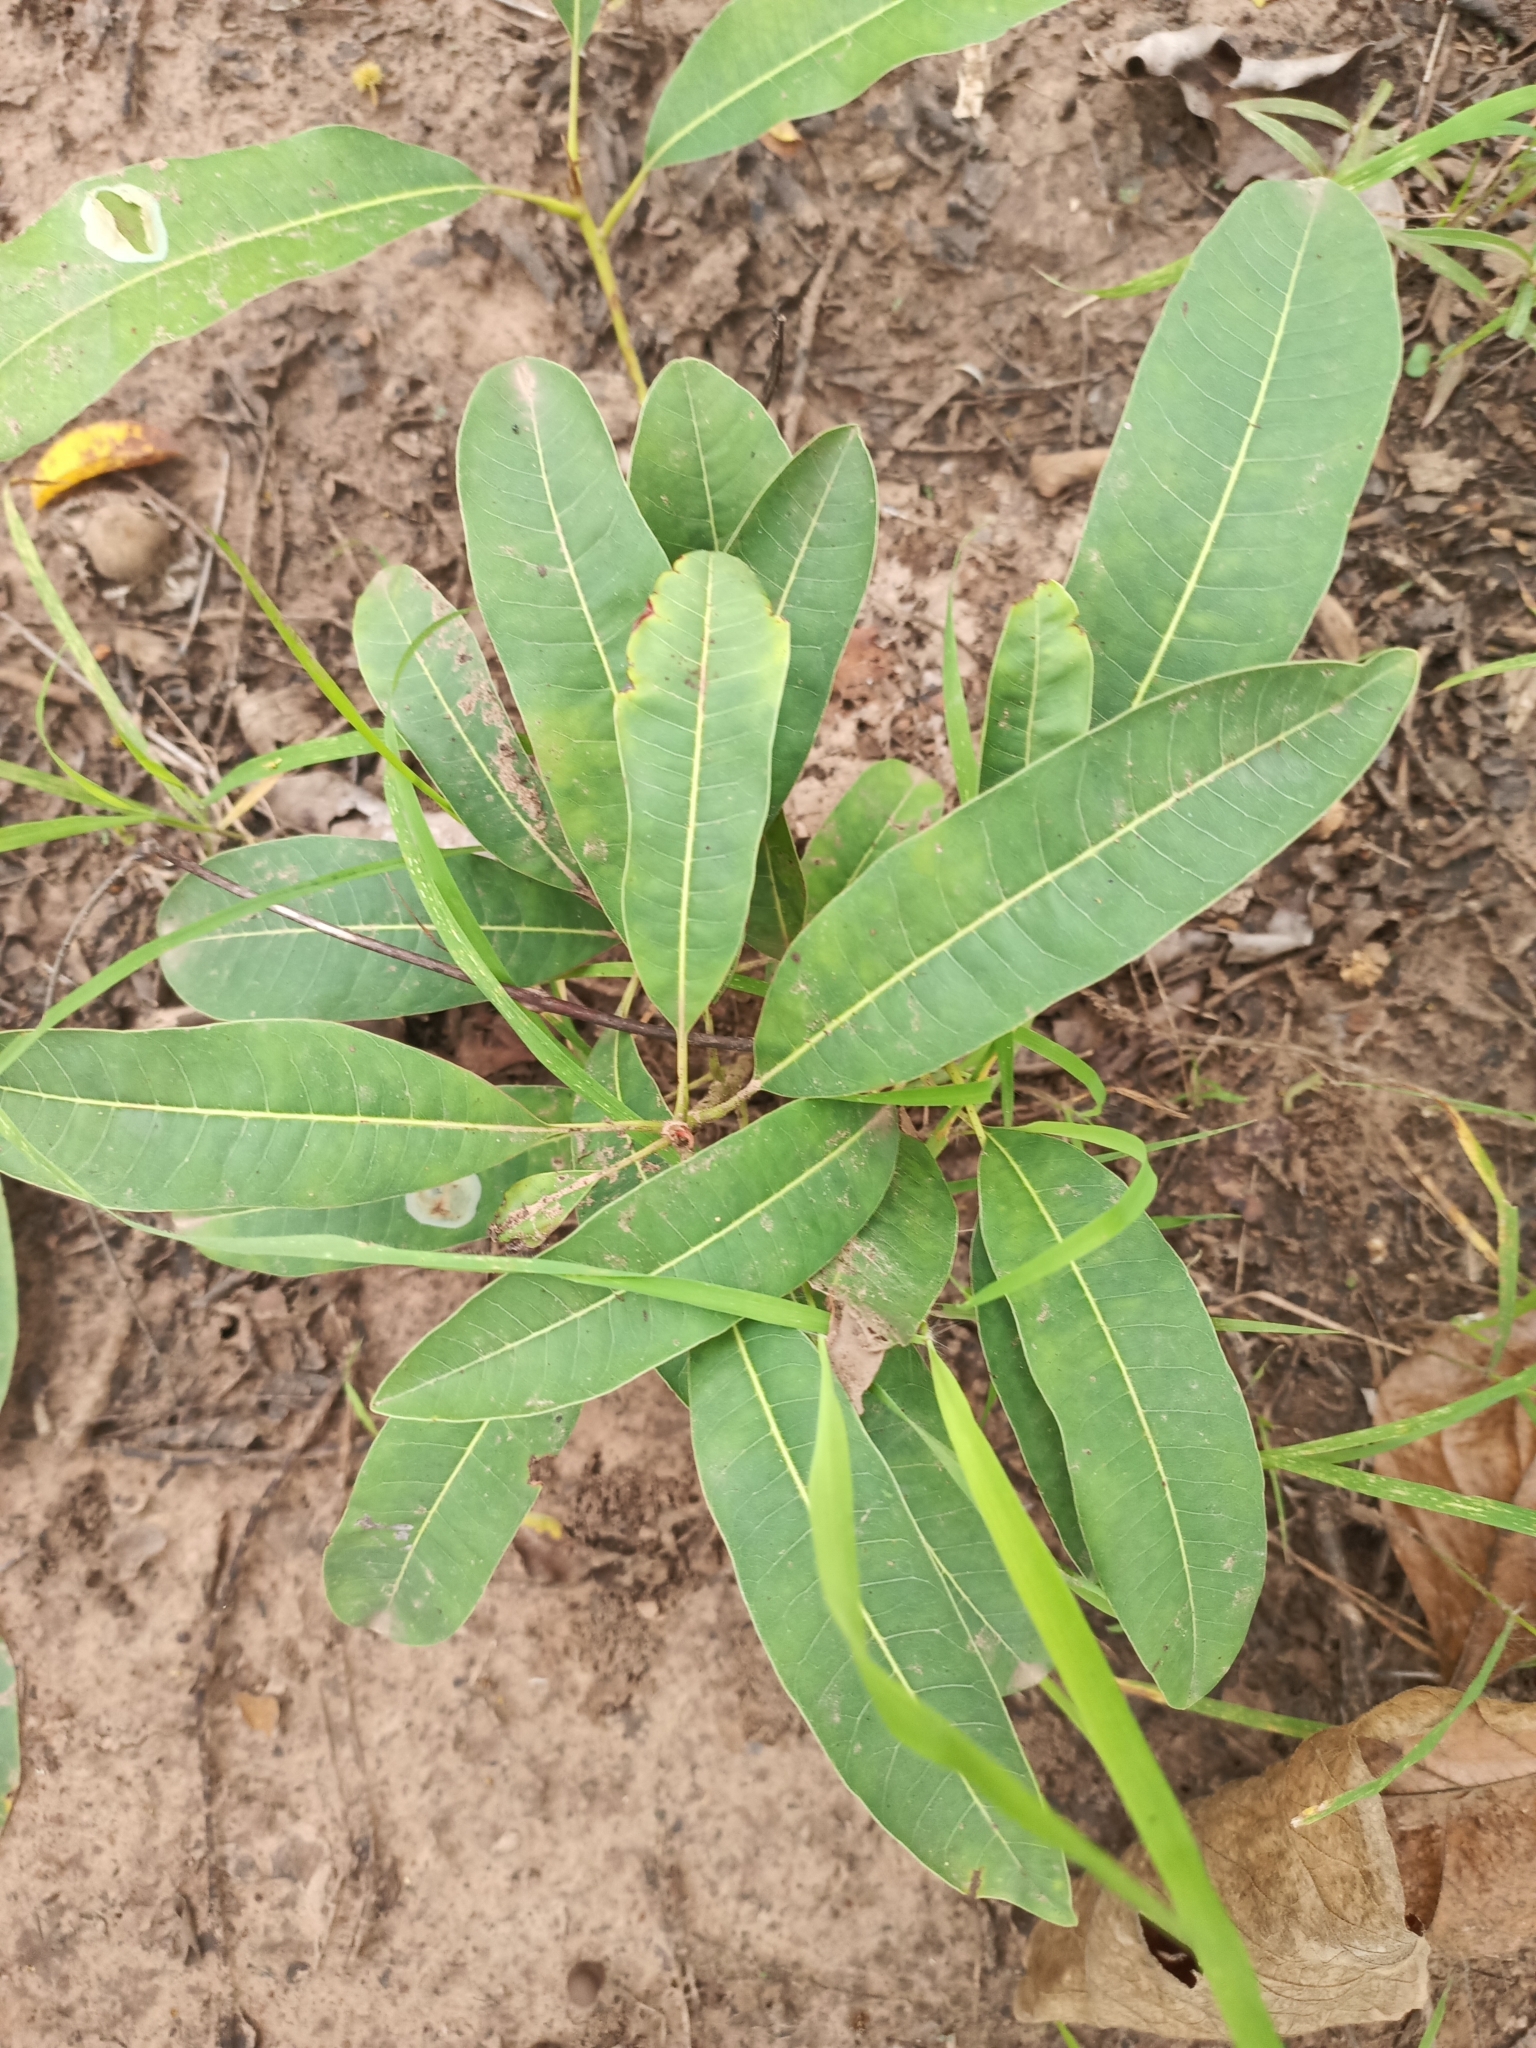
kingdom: Plantae
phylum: Tracheophyta
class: Magnoliopsida
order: Ericales
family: Sapotaceae
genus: Vitellaria
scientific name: Vitellaria paradoxa
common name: Shea butter tree
